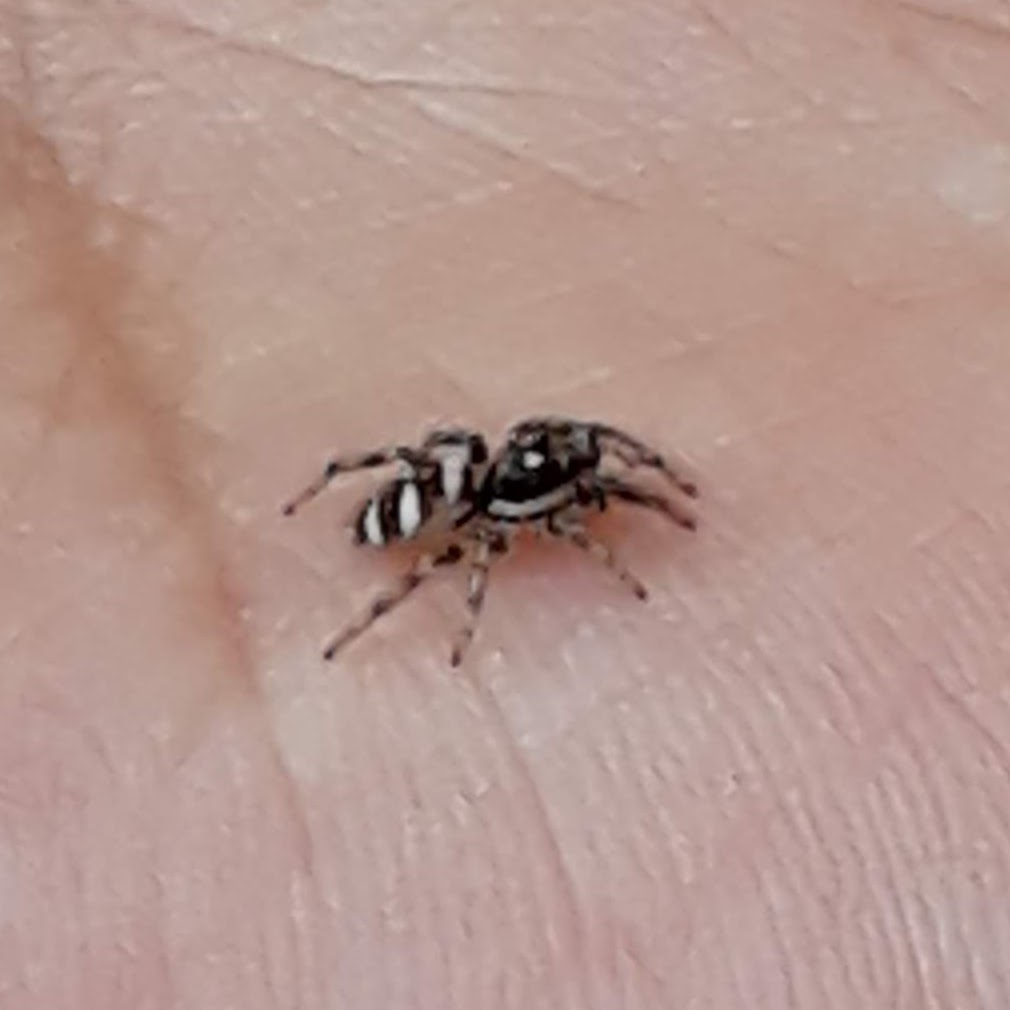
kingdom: Animalia
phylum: Arthropoda
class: Arachnida
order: Araneae
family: Salticidae
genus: Salticus
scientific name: Salticus scenicus
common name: Zebra jumper
